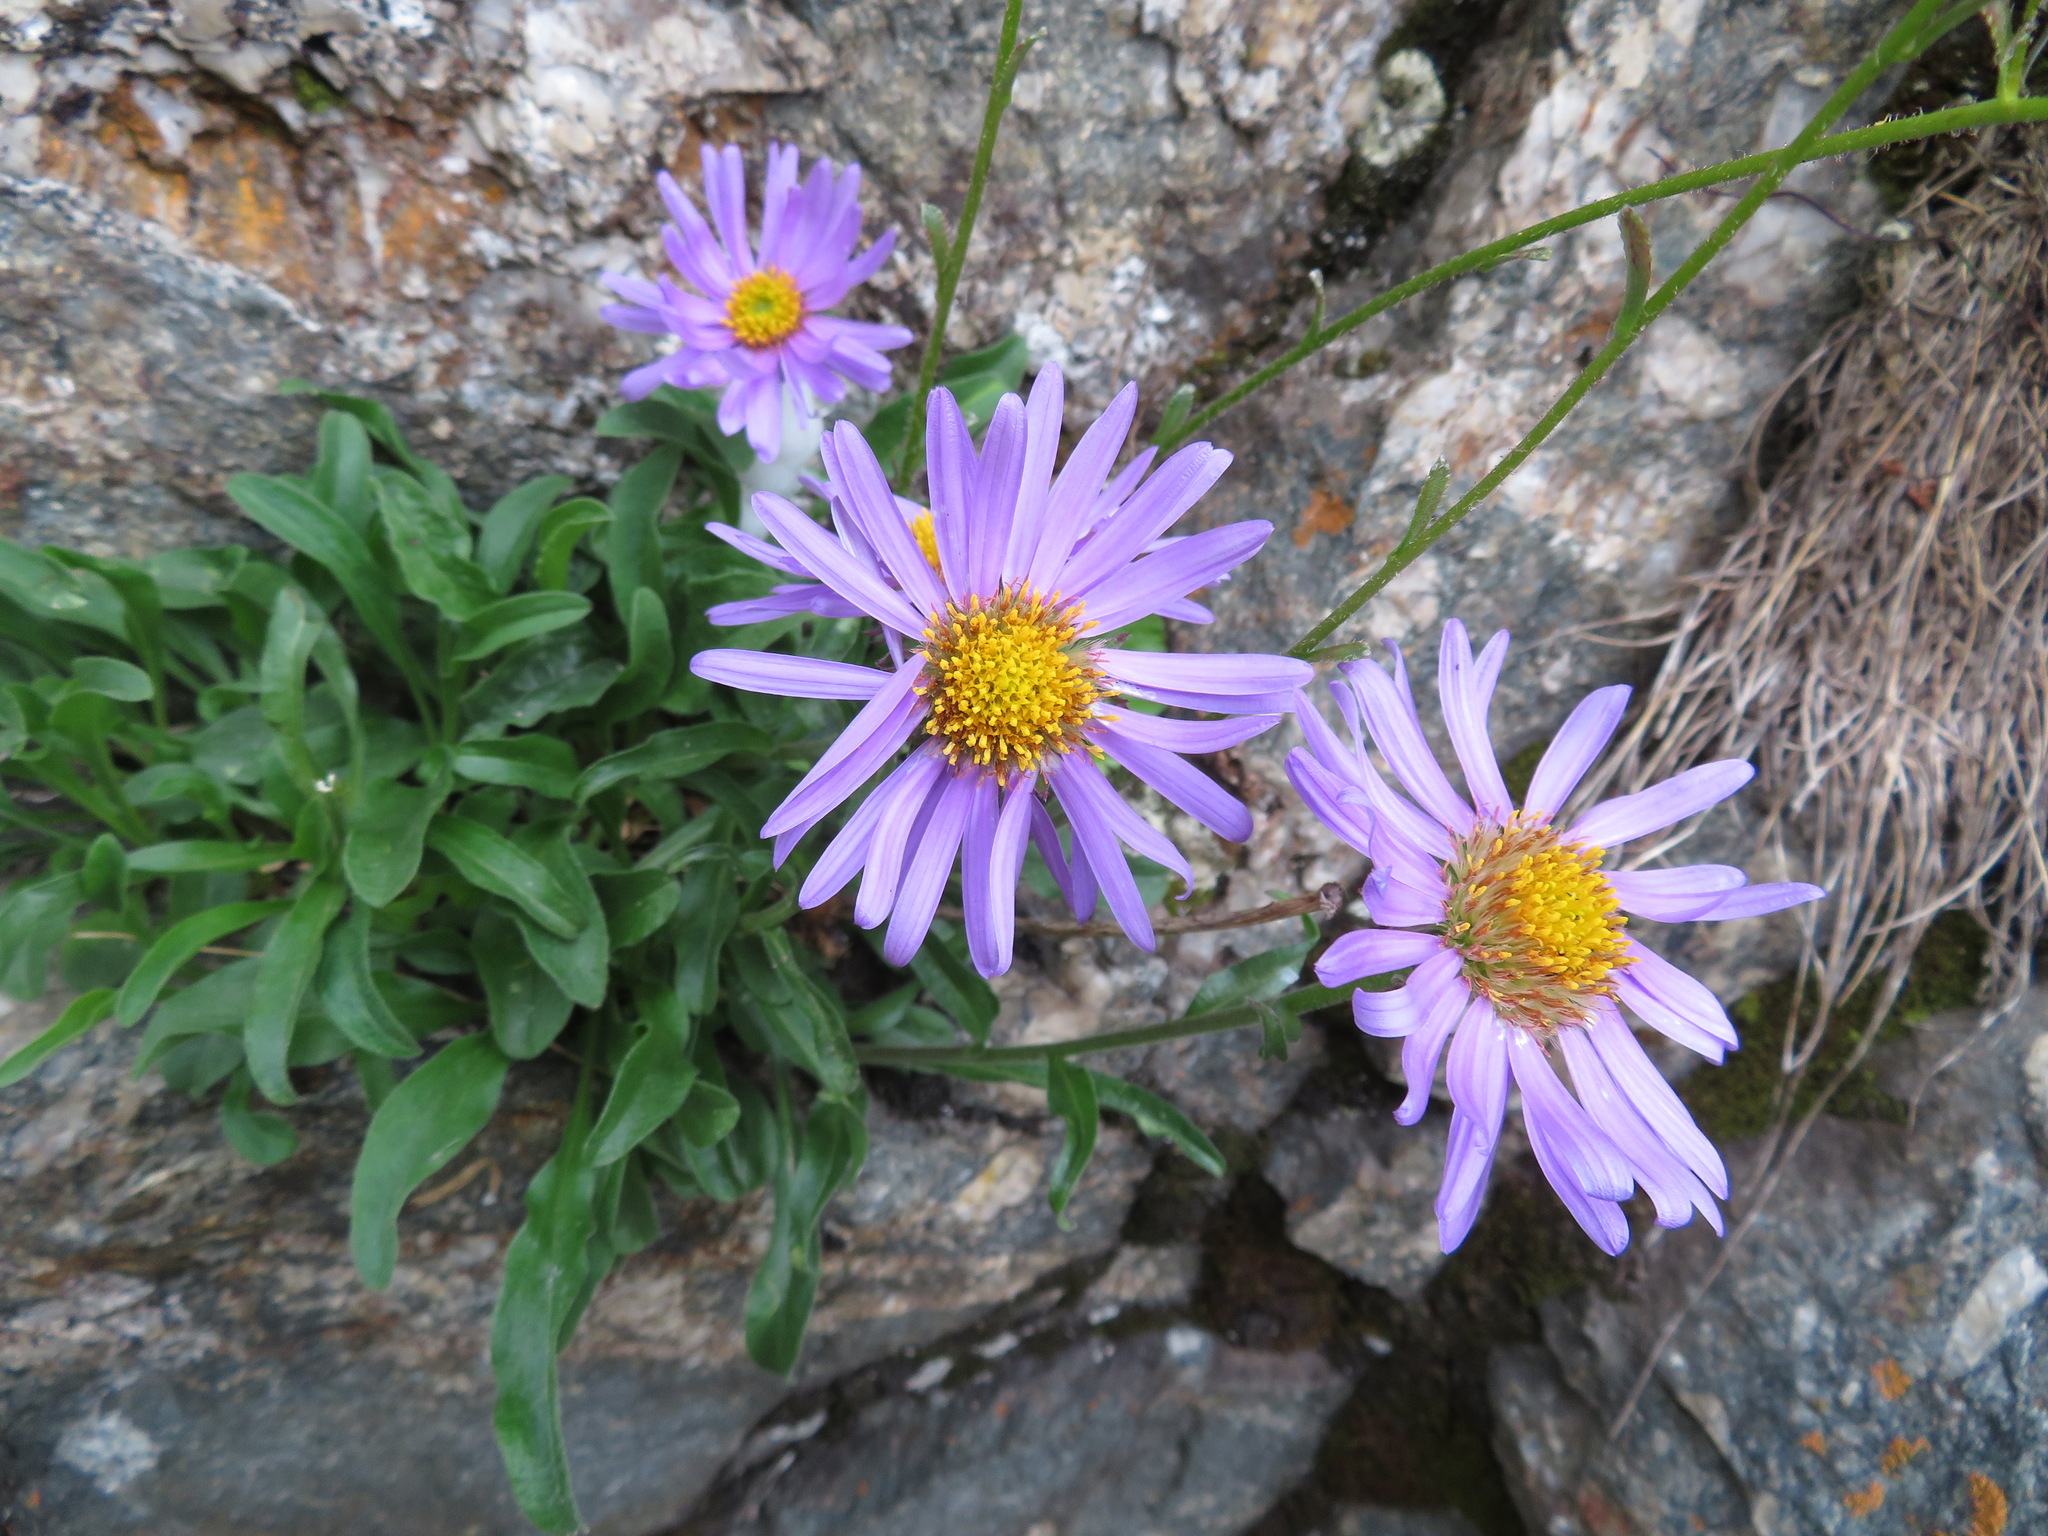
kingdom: Plantae
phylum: Tracheophyta
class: Magnoliopsida
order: Asterales
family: Asteraceae
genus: Aster
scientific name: Aster alpinus
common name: Alpine aster
